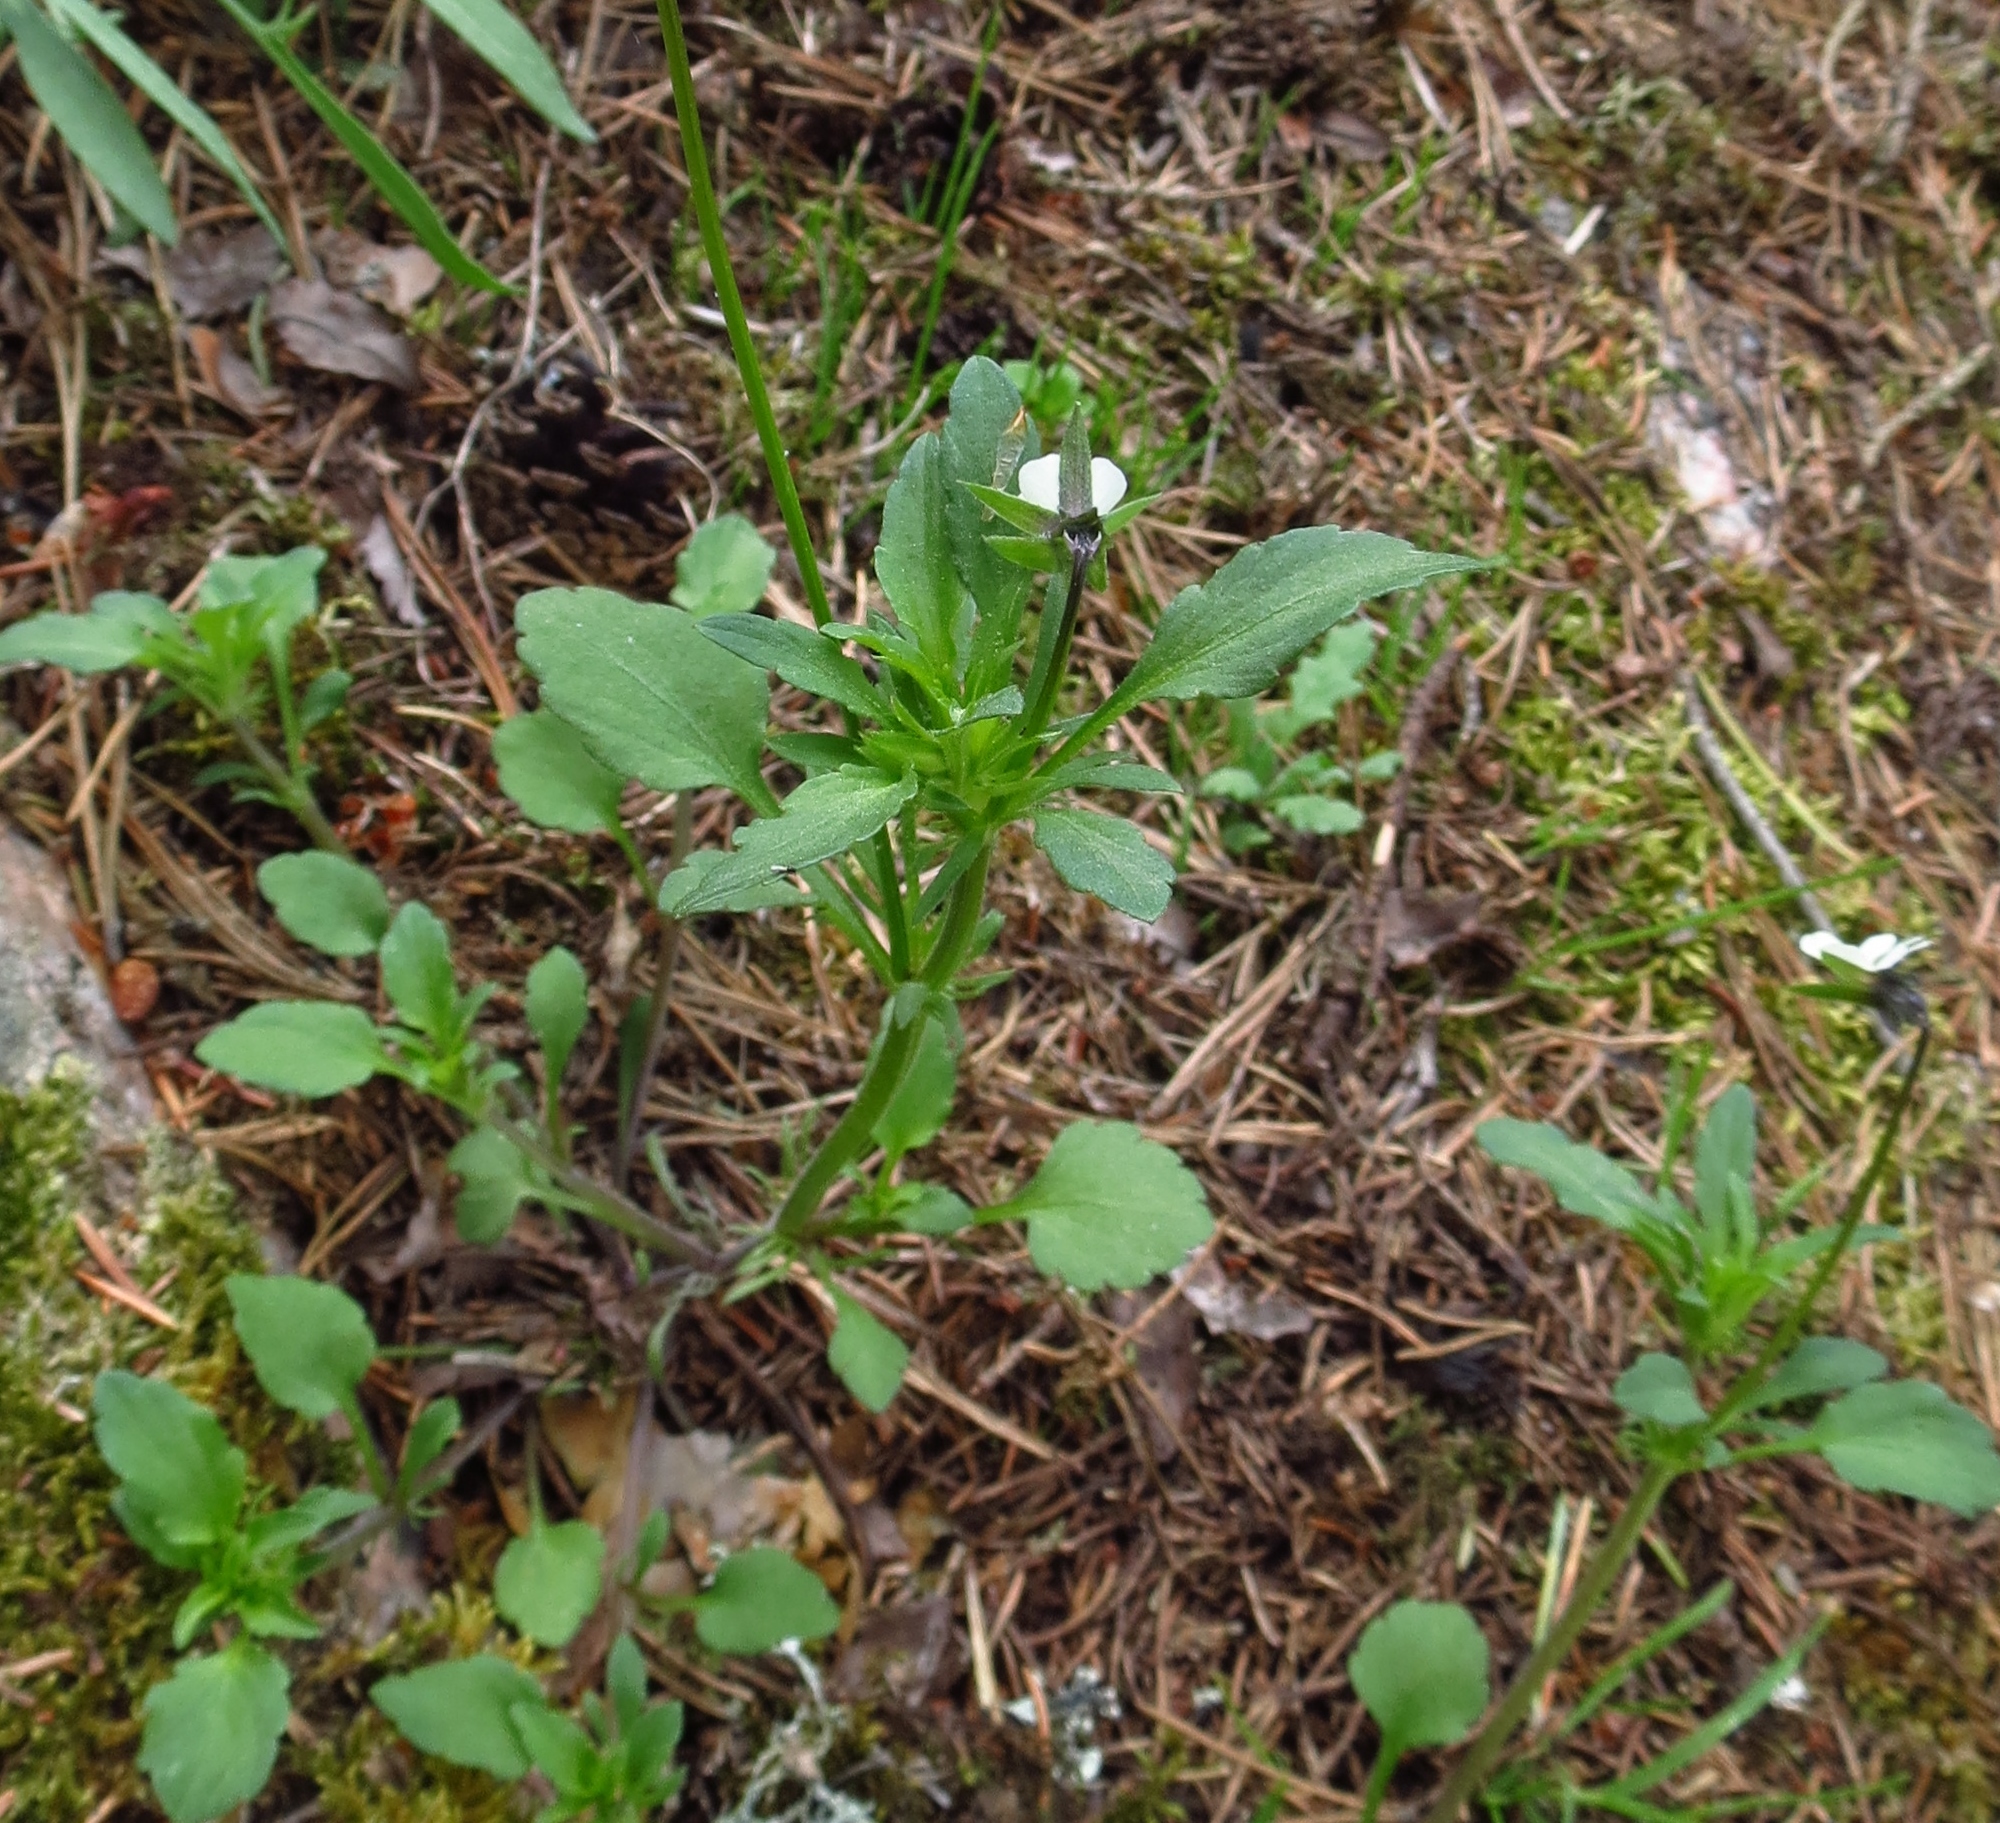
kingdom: Plantae
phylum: Tracheophyta
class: Magnoliopsida
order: Malpighiales
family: Violaceae
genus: Viola
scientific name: Viola arvensis
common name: Field pansy
